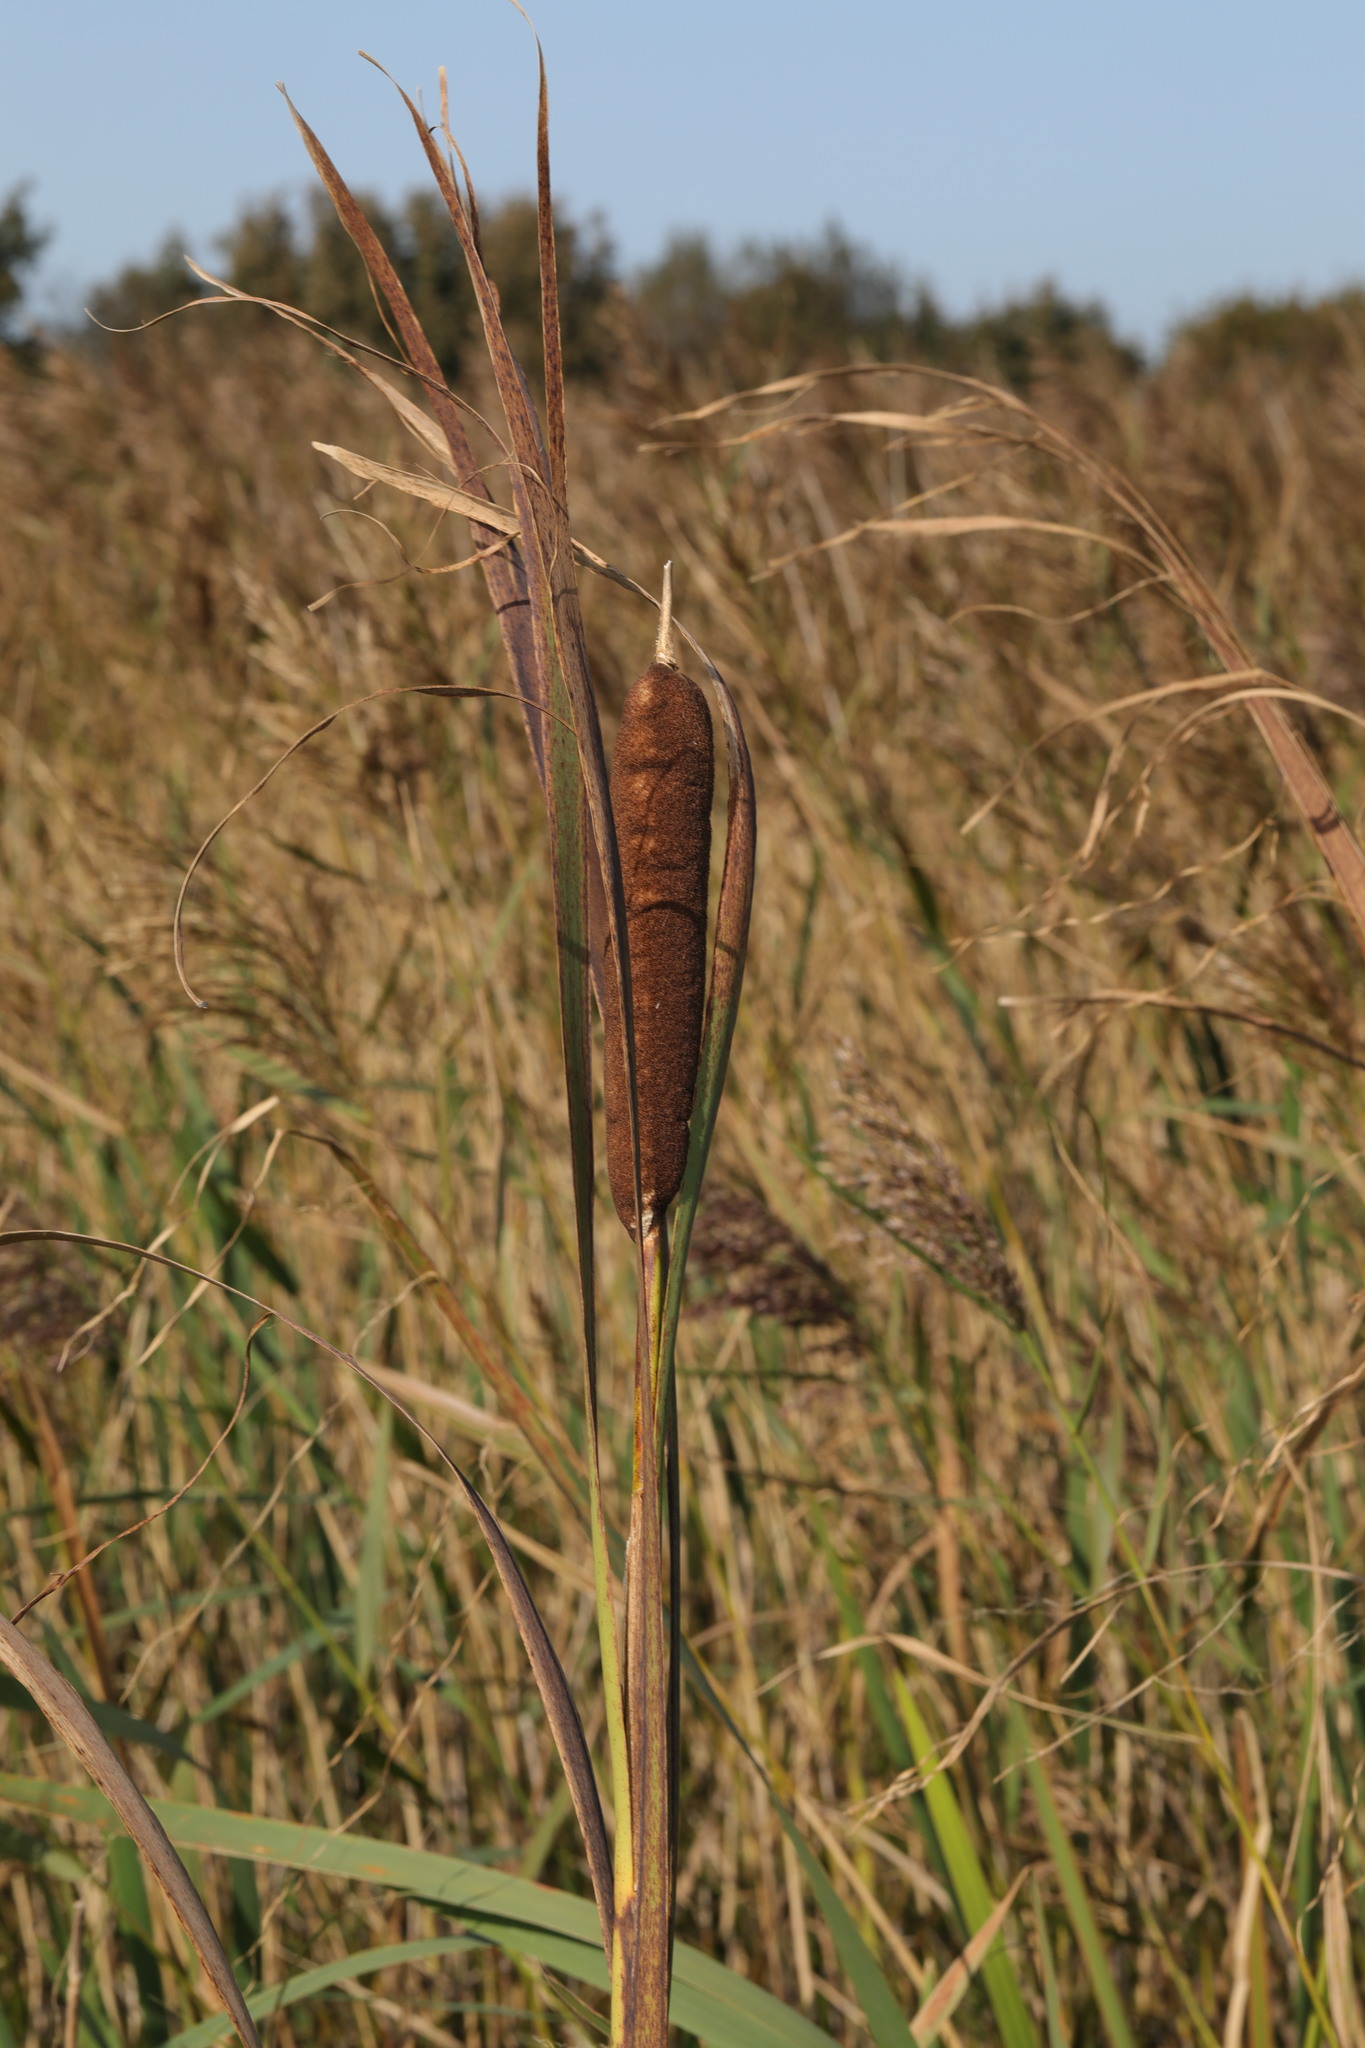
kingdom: Plantae
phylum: Tracheophyta
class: Liliopsida
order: Poales
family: Typhaceae
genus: Typha
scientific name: Typha latifolia
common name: Broadleaf cattail
